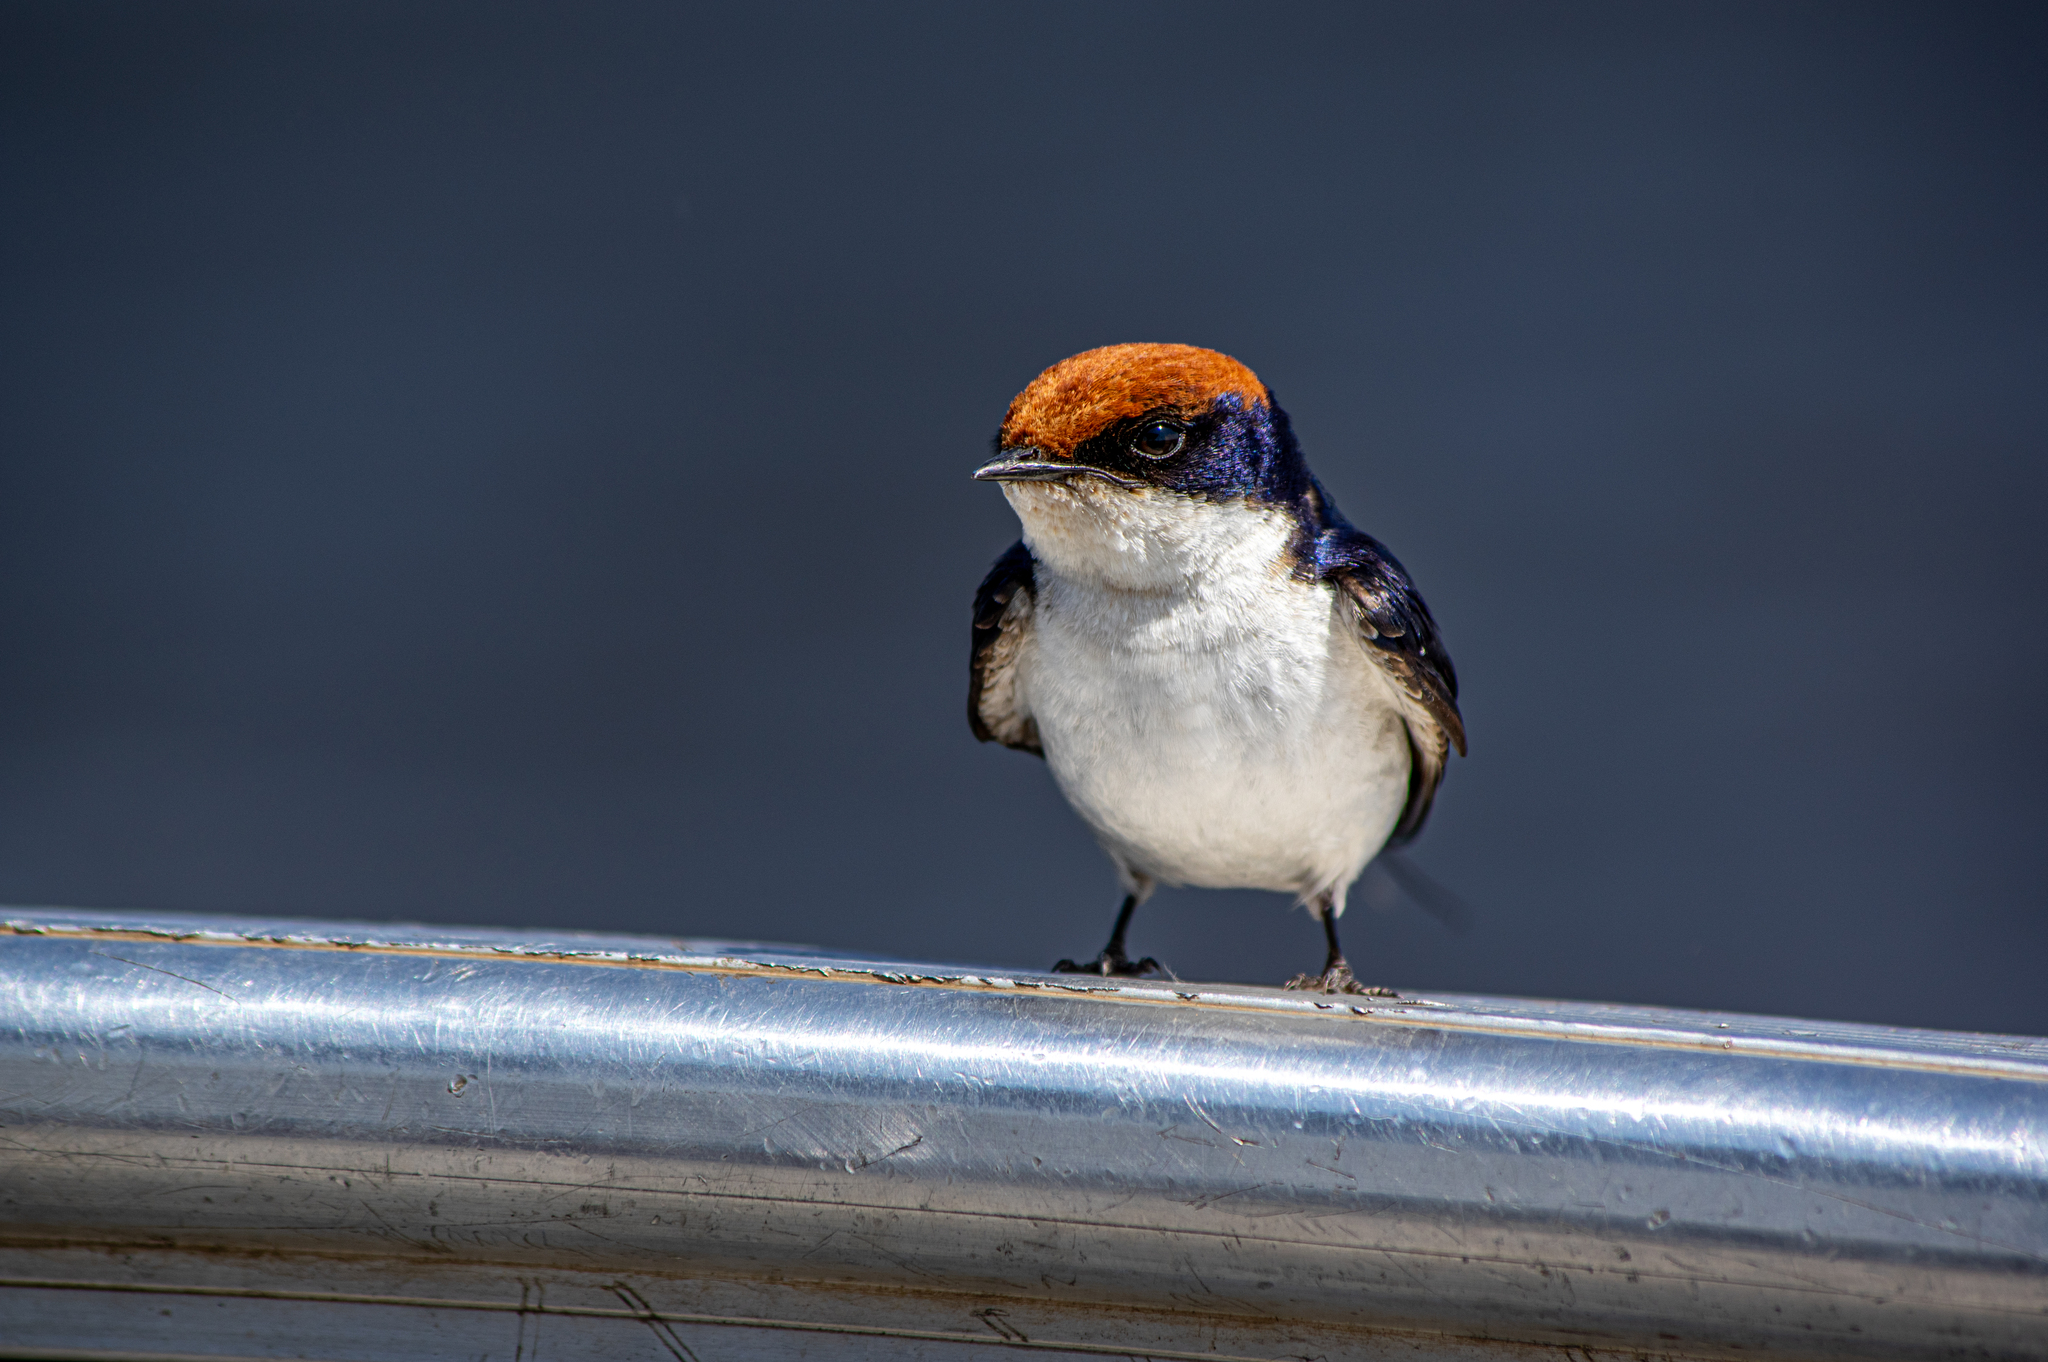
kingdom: Animalia
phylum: Chordata
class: Aves
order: Passeriformes
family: Hirundinidae
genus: Hirundo
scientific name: Hirundo smithii
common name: Wire-tailed swallow
